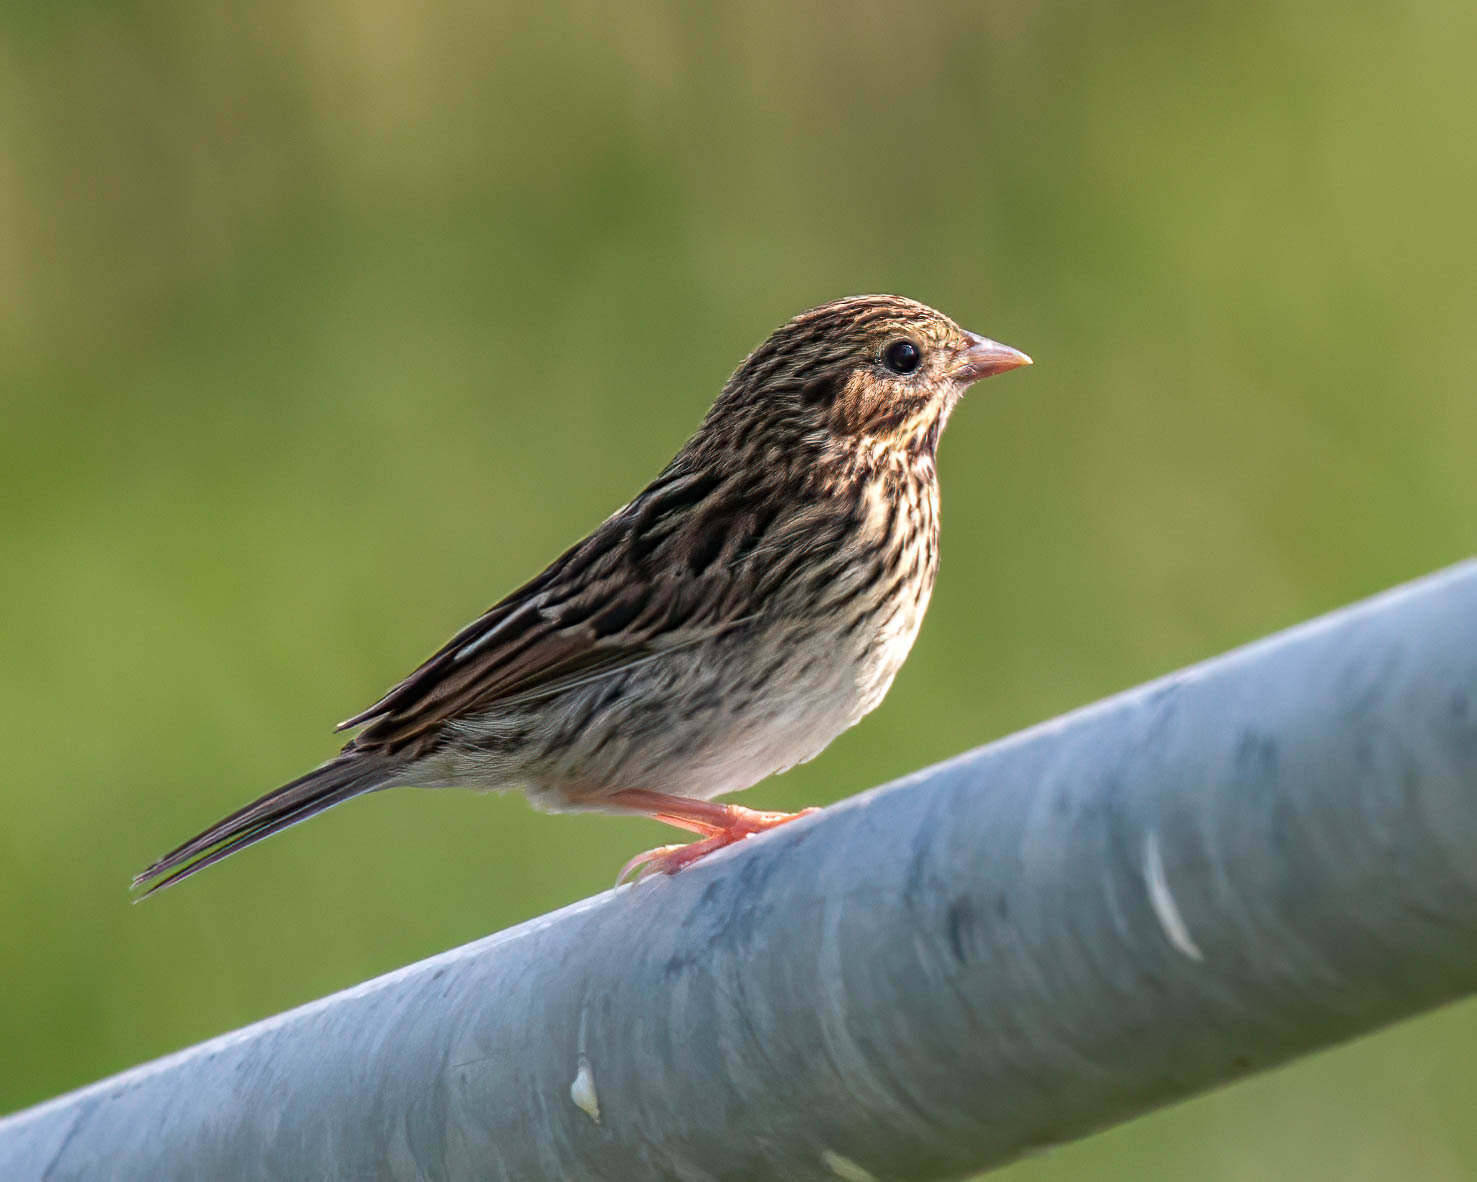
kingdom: Animalia
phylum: Chordata
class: Aves
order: Passeriformes
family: Passerellidae
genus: Passerculus
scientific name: Passerculus sandwichensis
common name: Savannah sparrow
